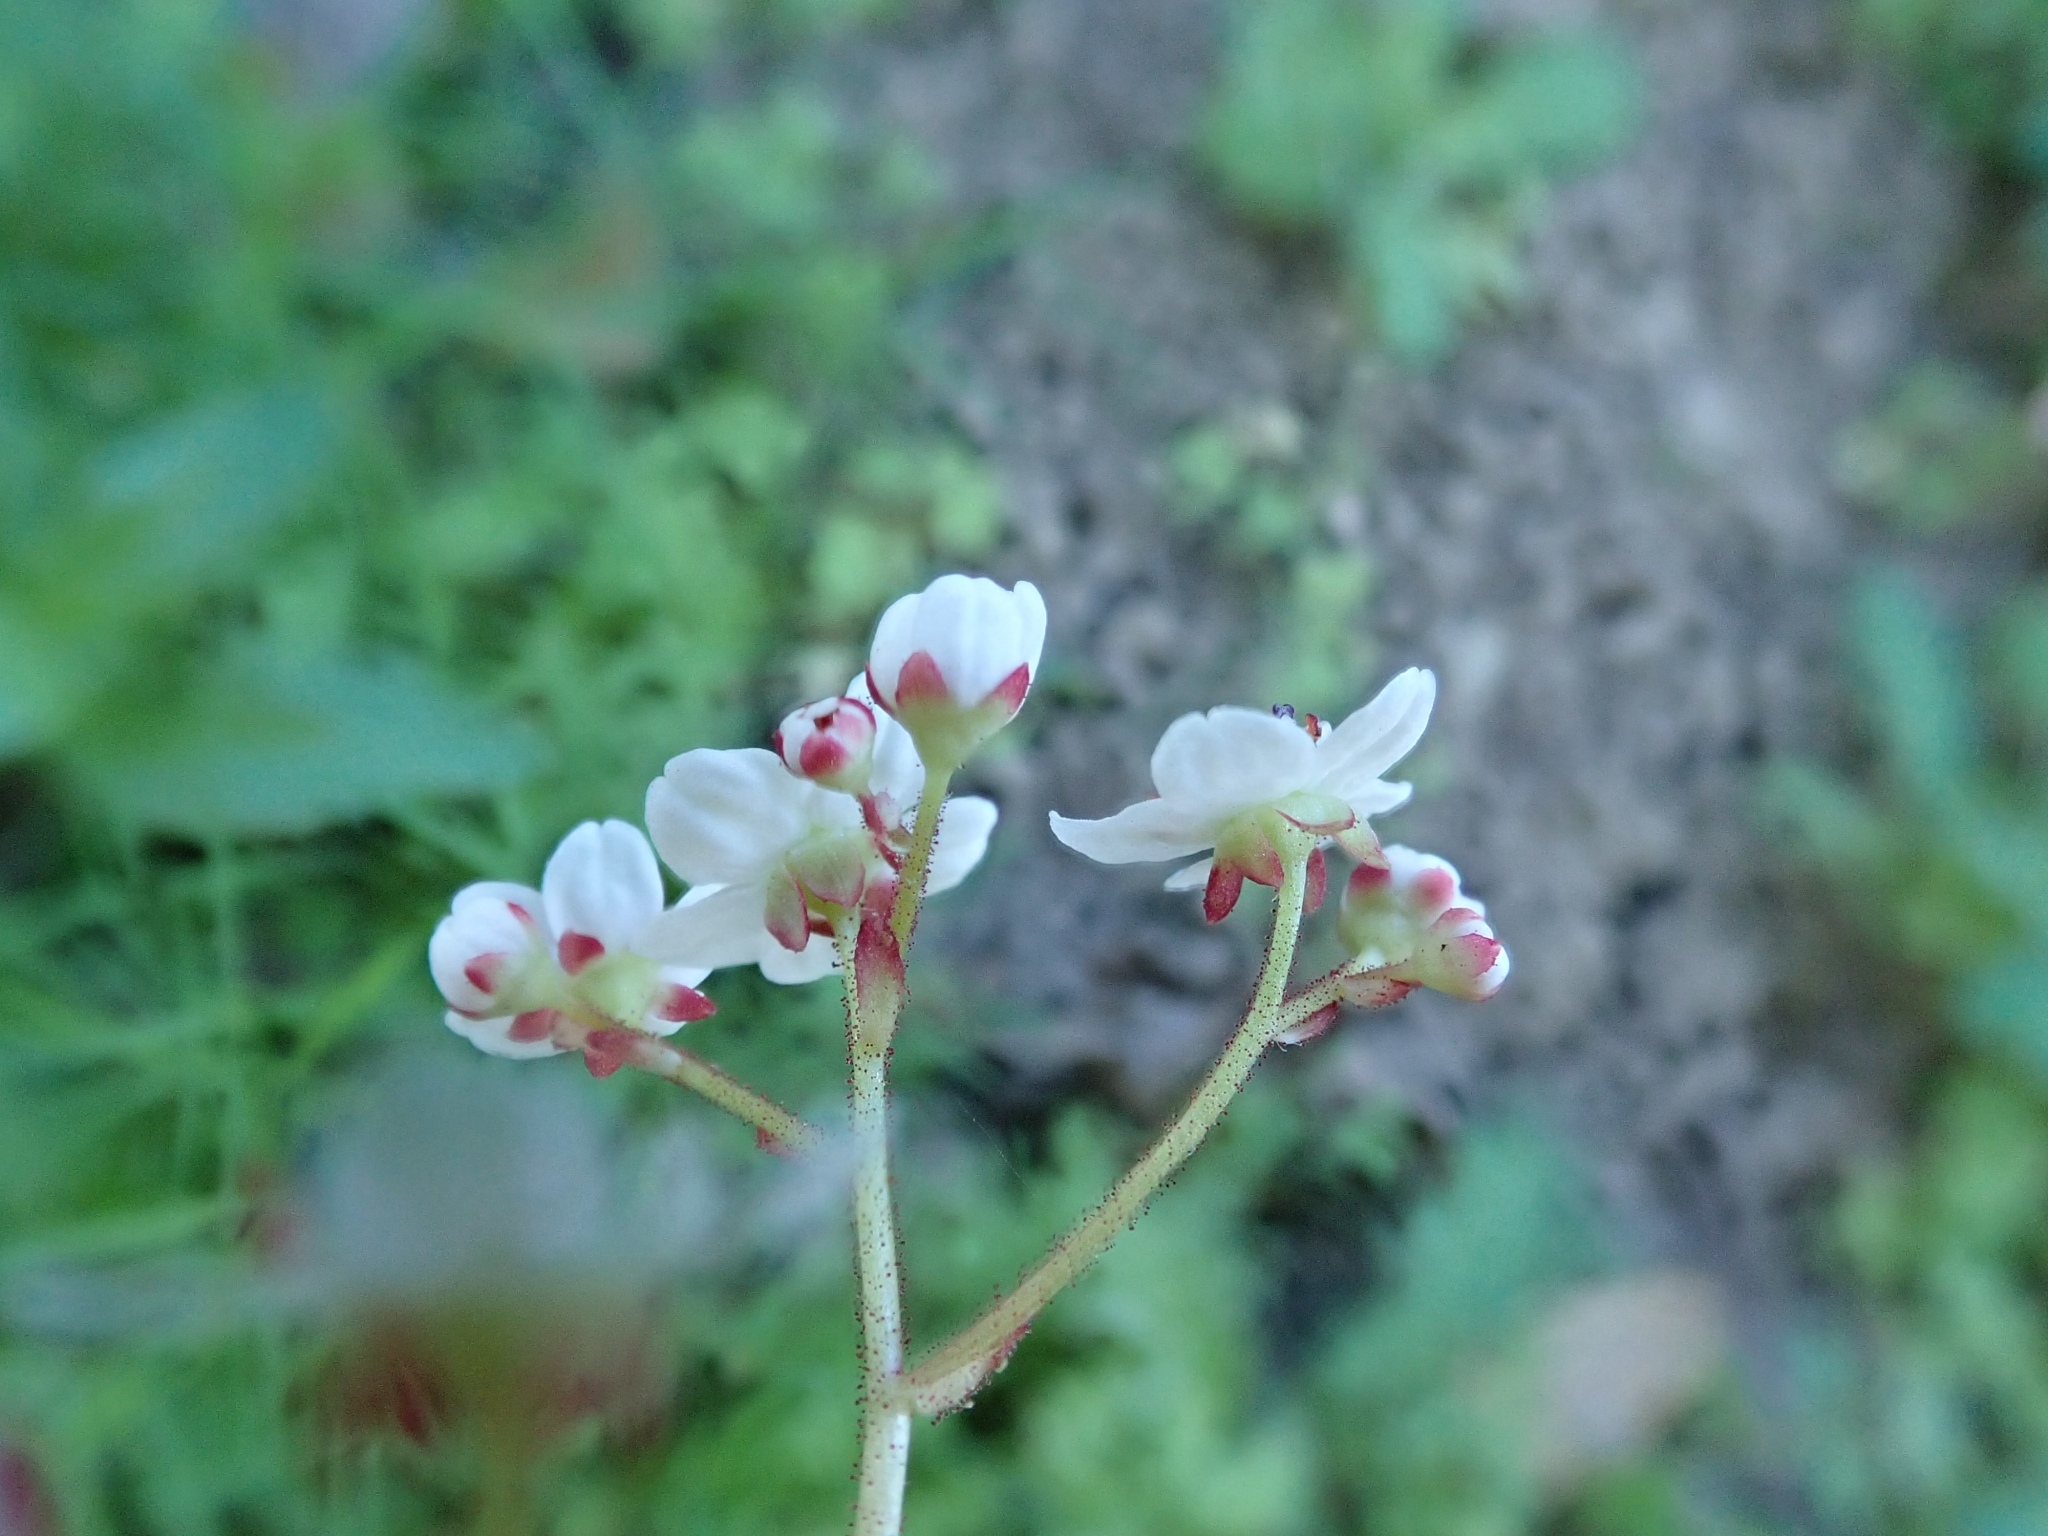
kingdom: Plantae
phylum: Tracheophyta
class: Magnoliopsida
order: Saxifragales
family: Saxifragaceae
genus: Micranthes
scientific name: Micranthes californica
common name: California saxifrage
